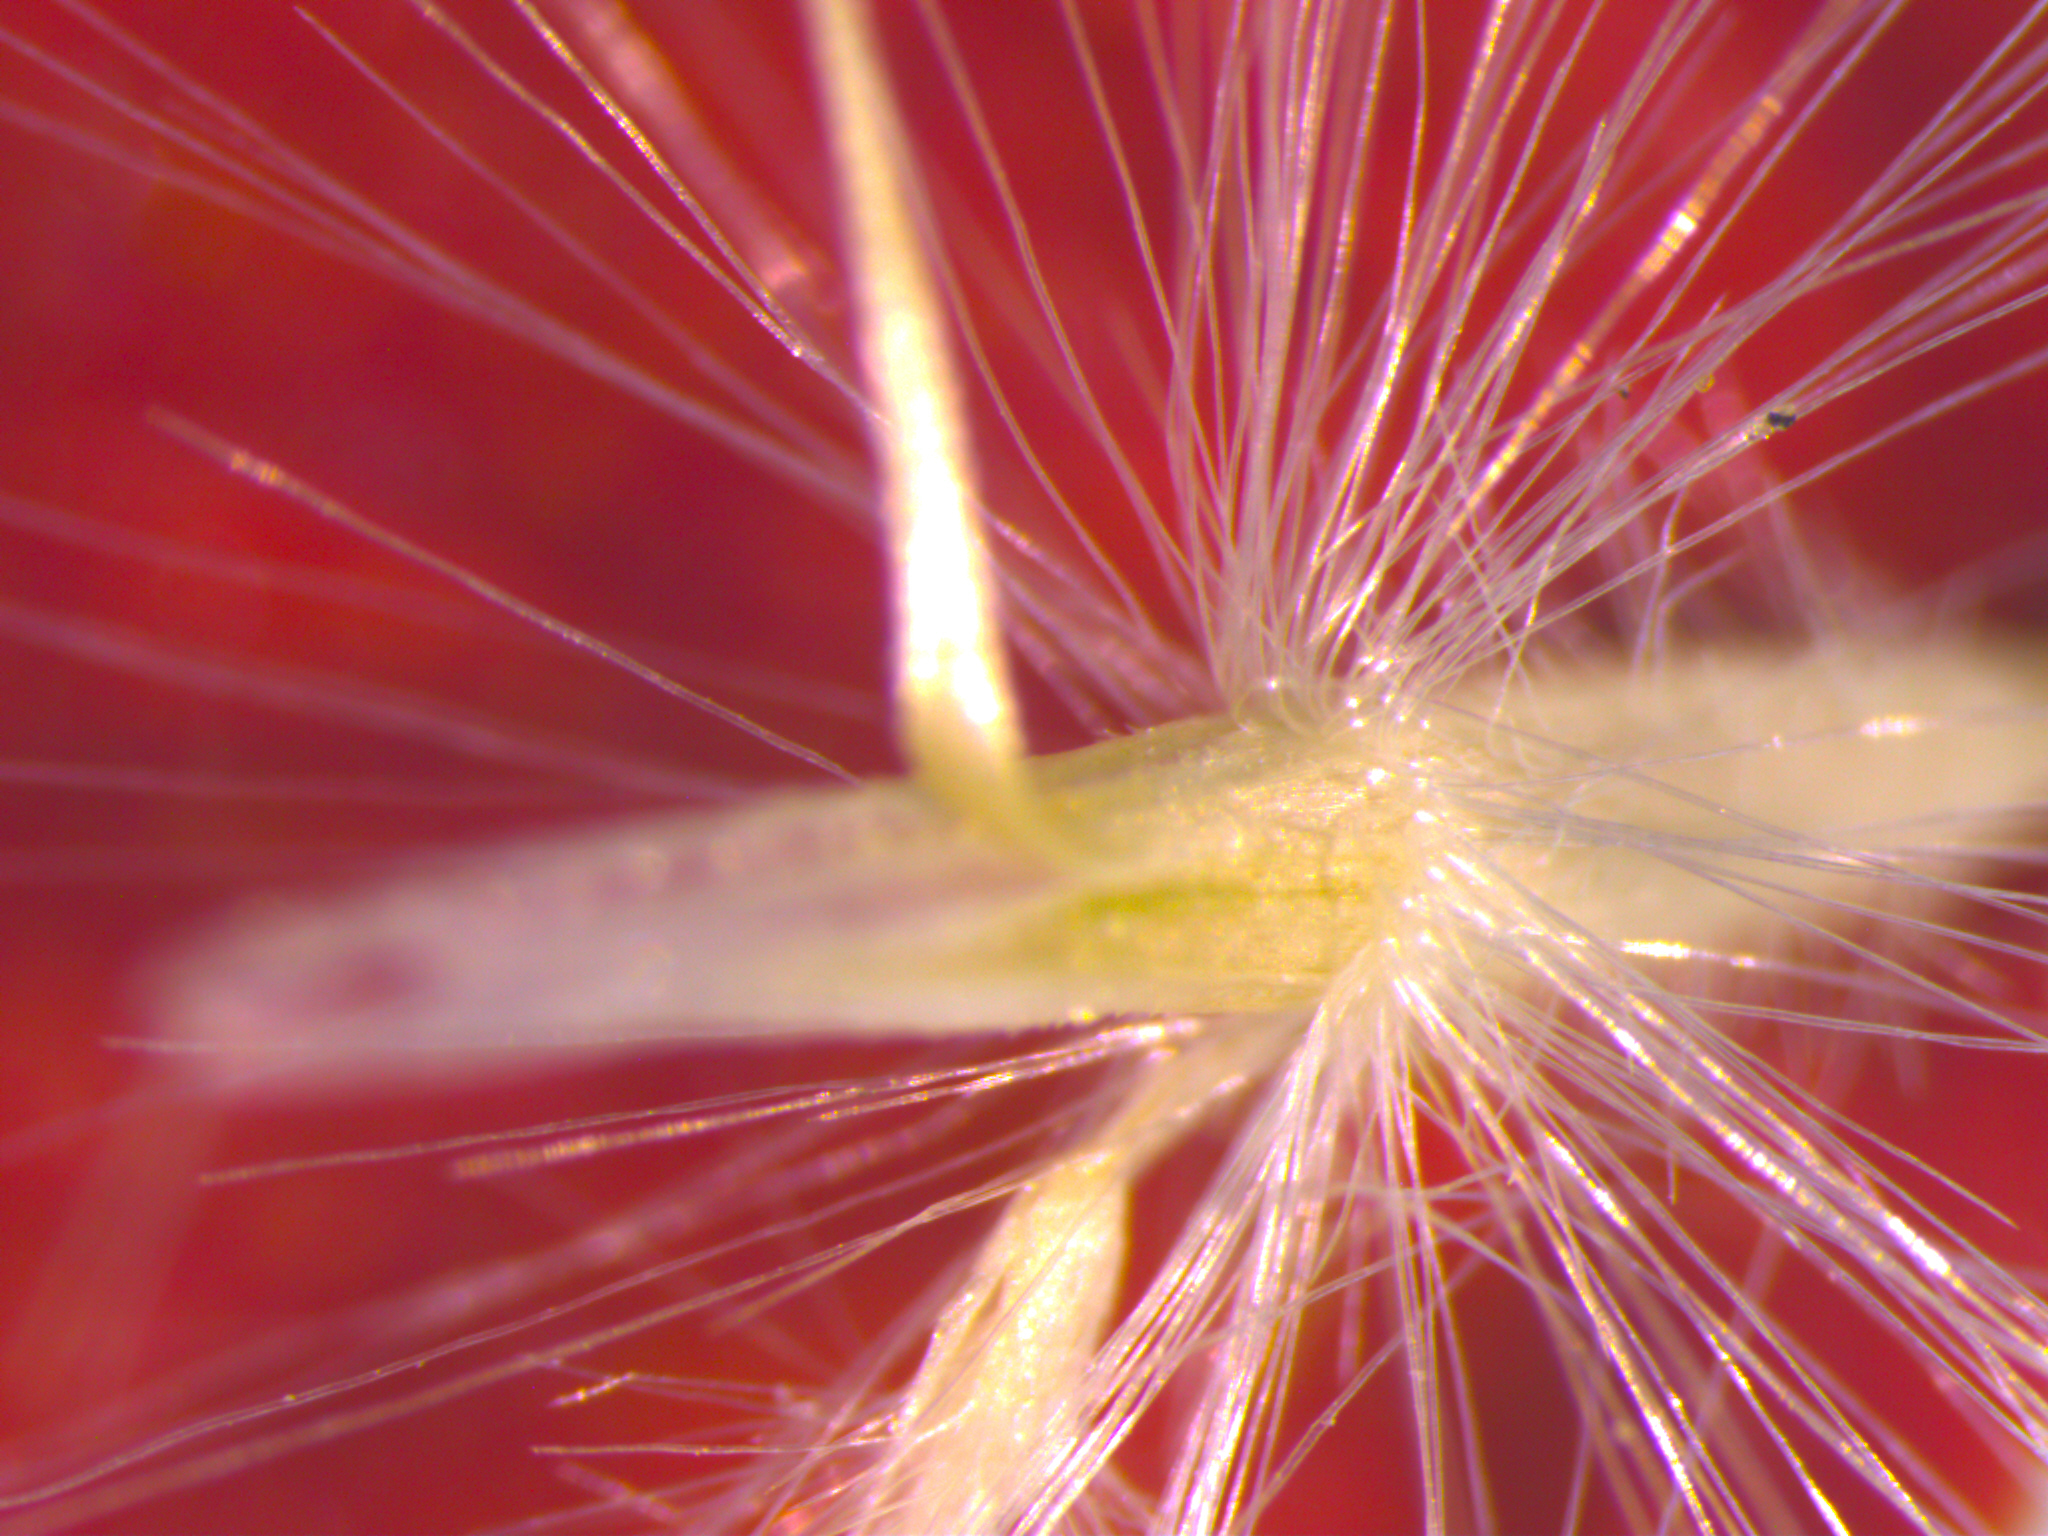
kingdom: Plantae
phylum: Tracheophyta
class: Liliopsida
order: Poales
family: Poaceae
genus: Rytidosperma
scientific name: Rytidosperma gracile
